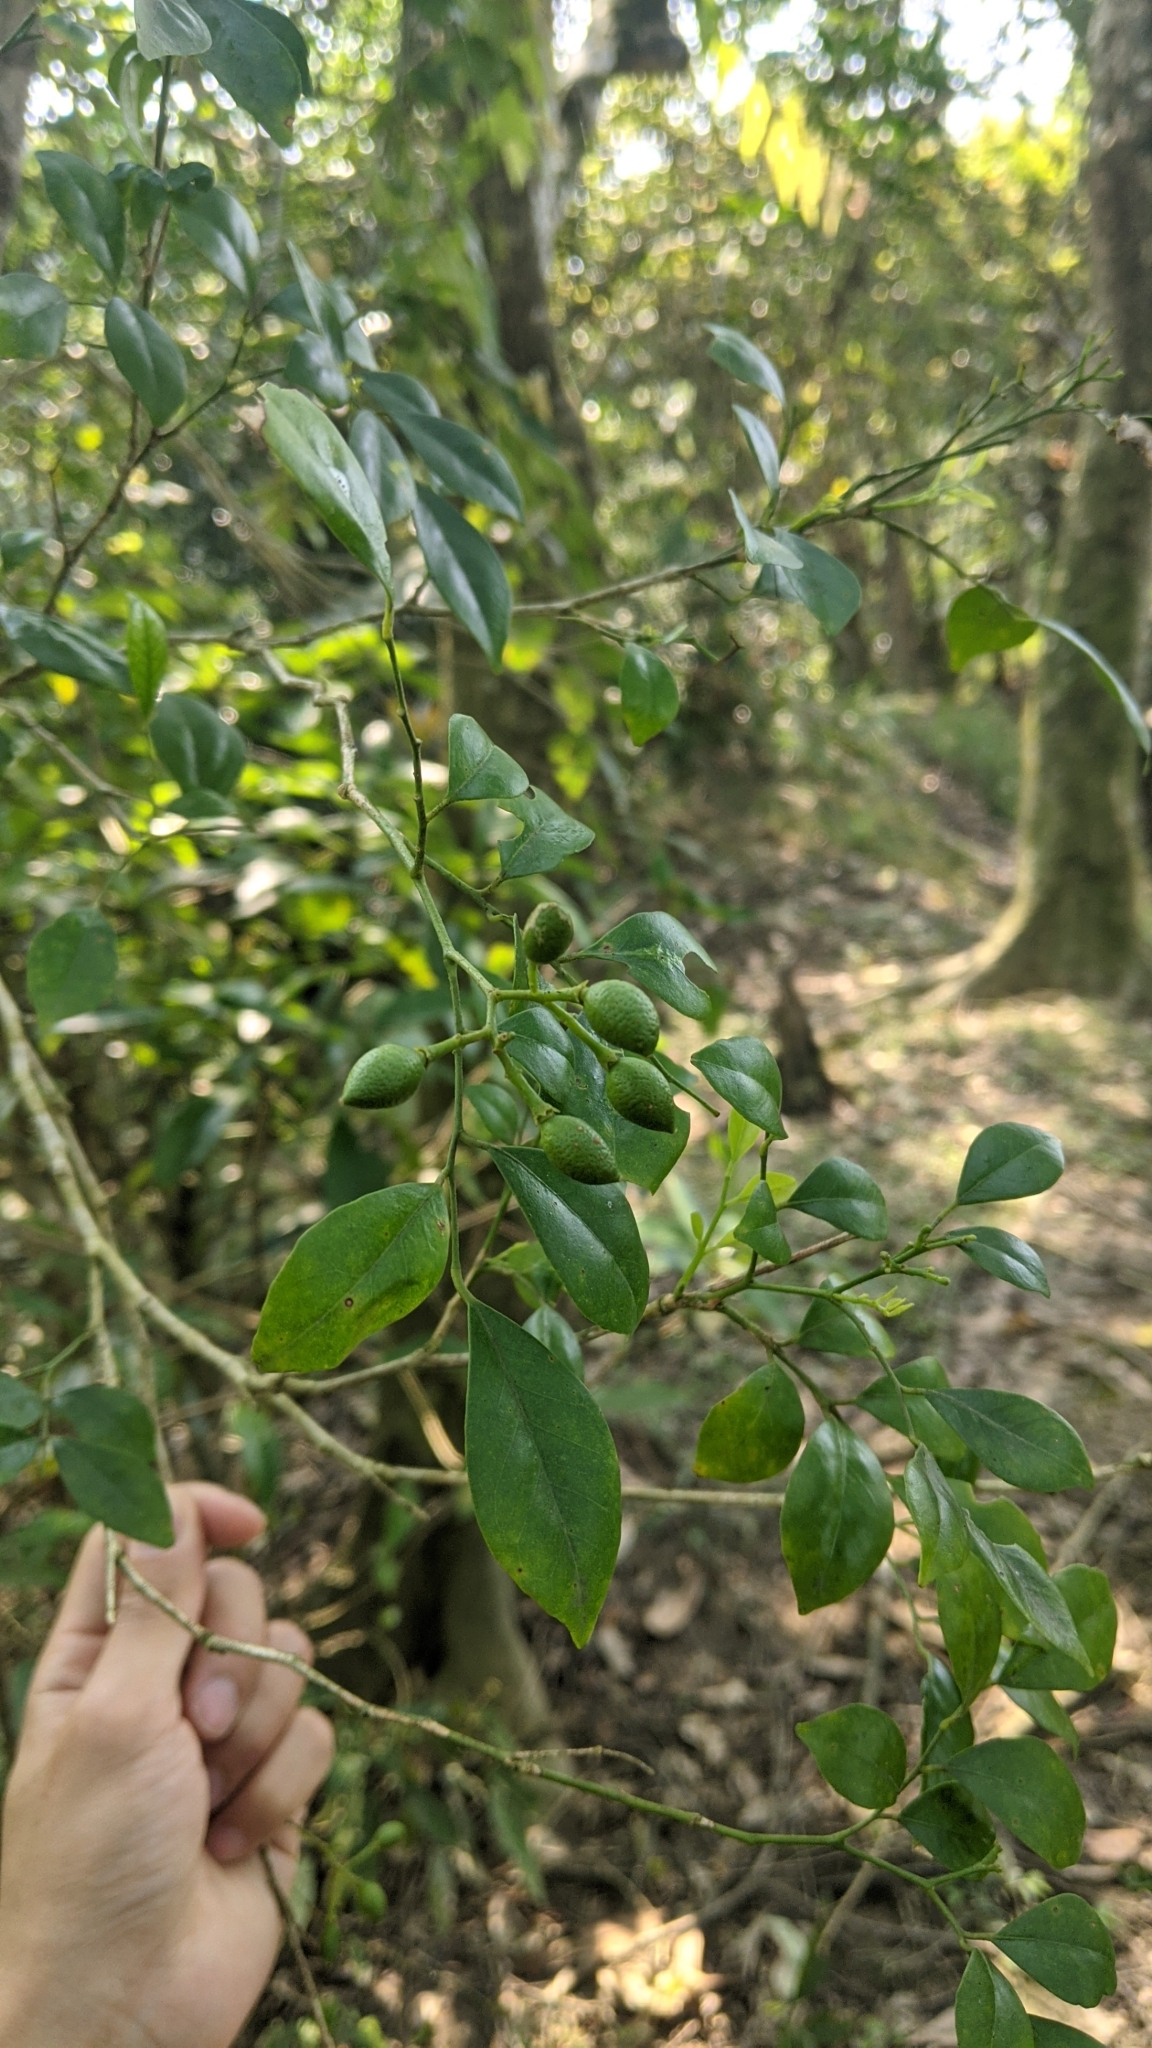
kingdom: Plantae
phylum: Tracheophyta
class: Magnoliopsida
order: Sapindales
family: Rutaceae
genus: Murraya
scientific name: Murraya paniculata
